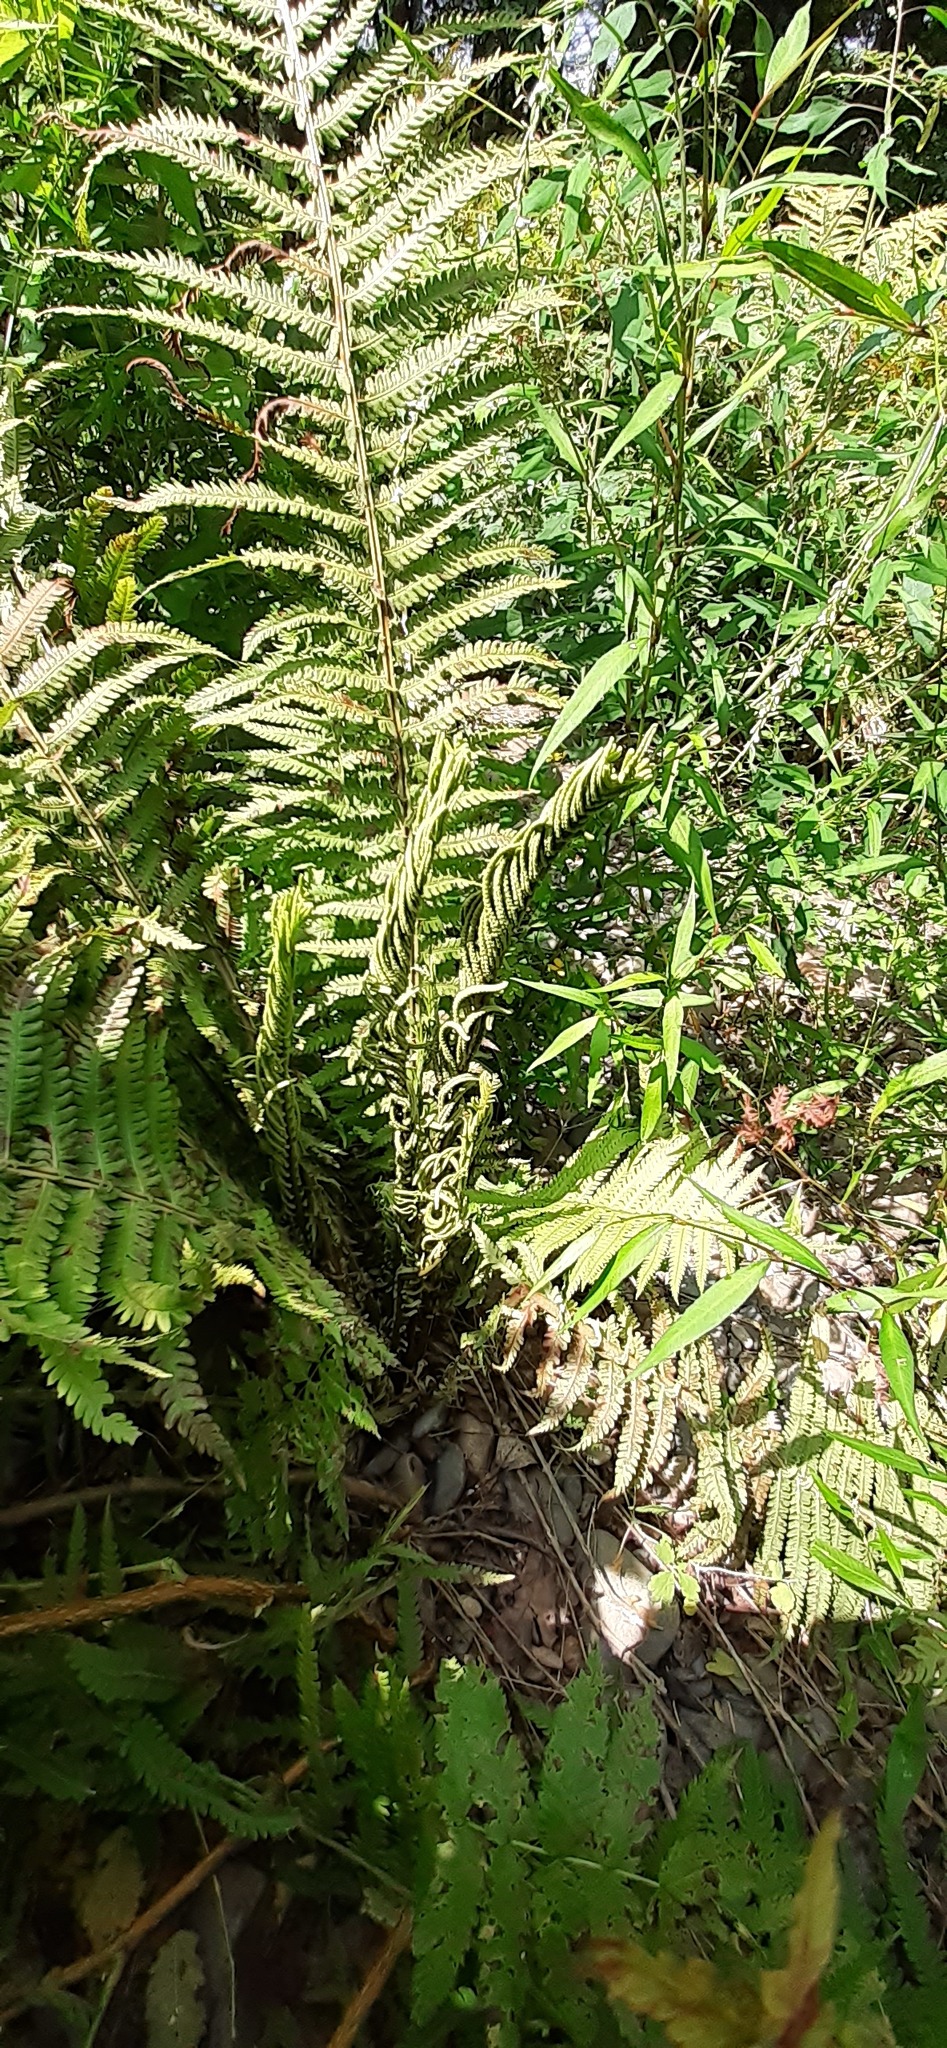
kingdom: Plantae
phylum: Tracheophyta
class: Polypodiopsida
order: Polypodiales
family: Onocleaceae
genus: Matteuccia
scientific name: Matteuccia struthiopteris
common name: Ostrich fern
